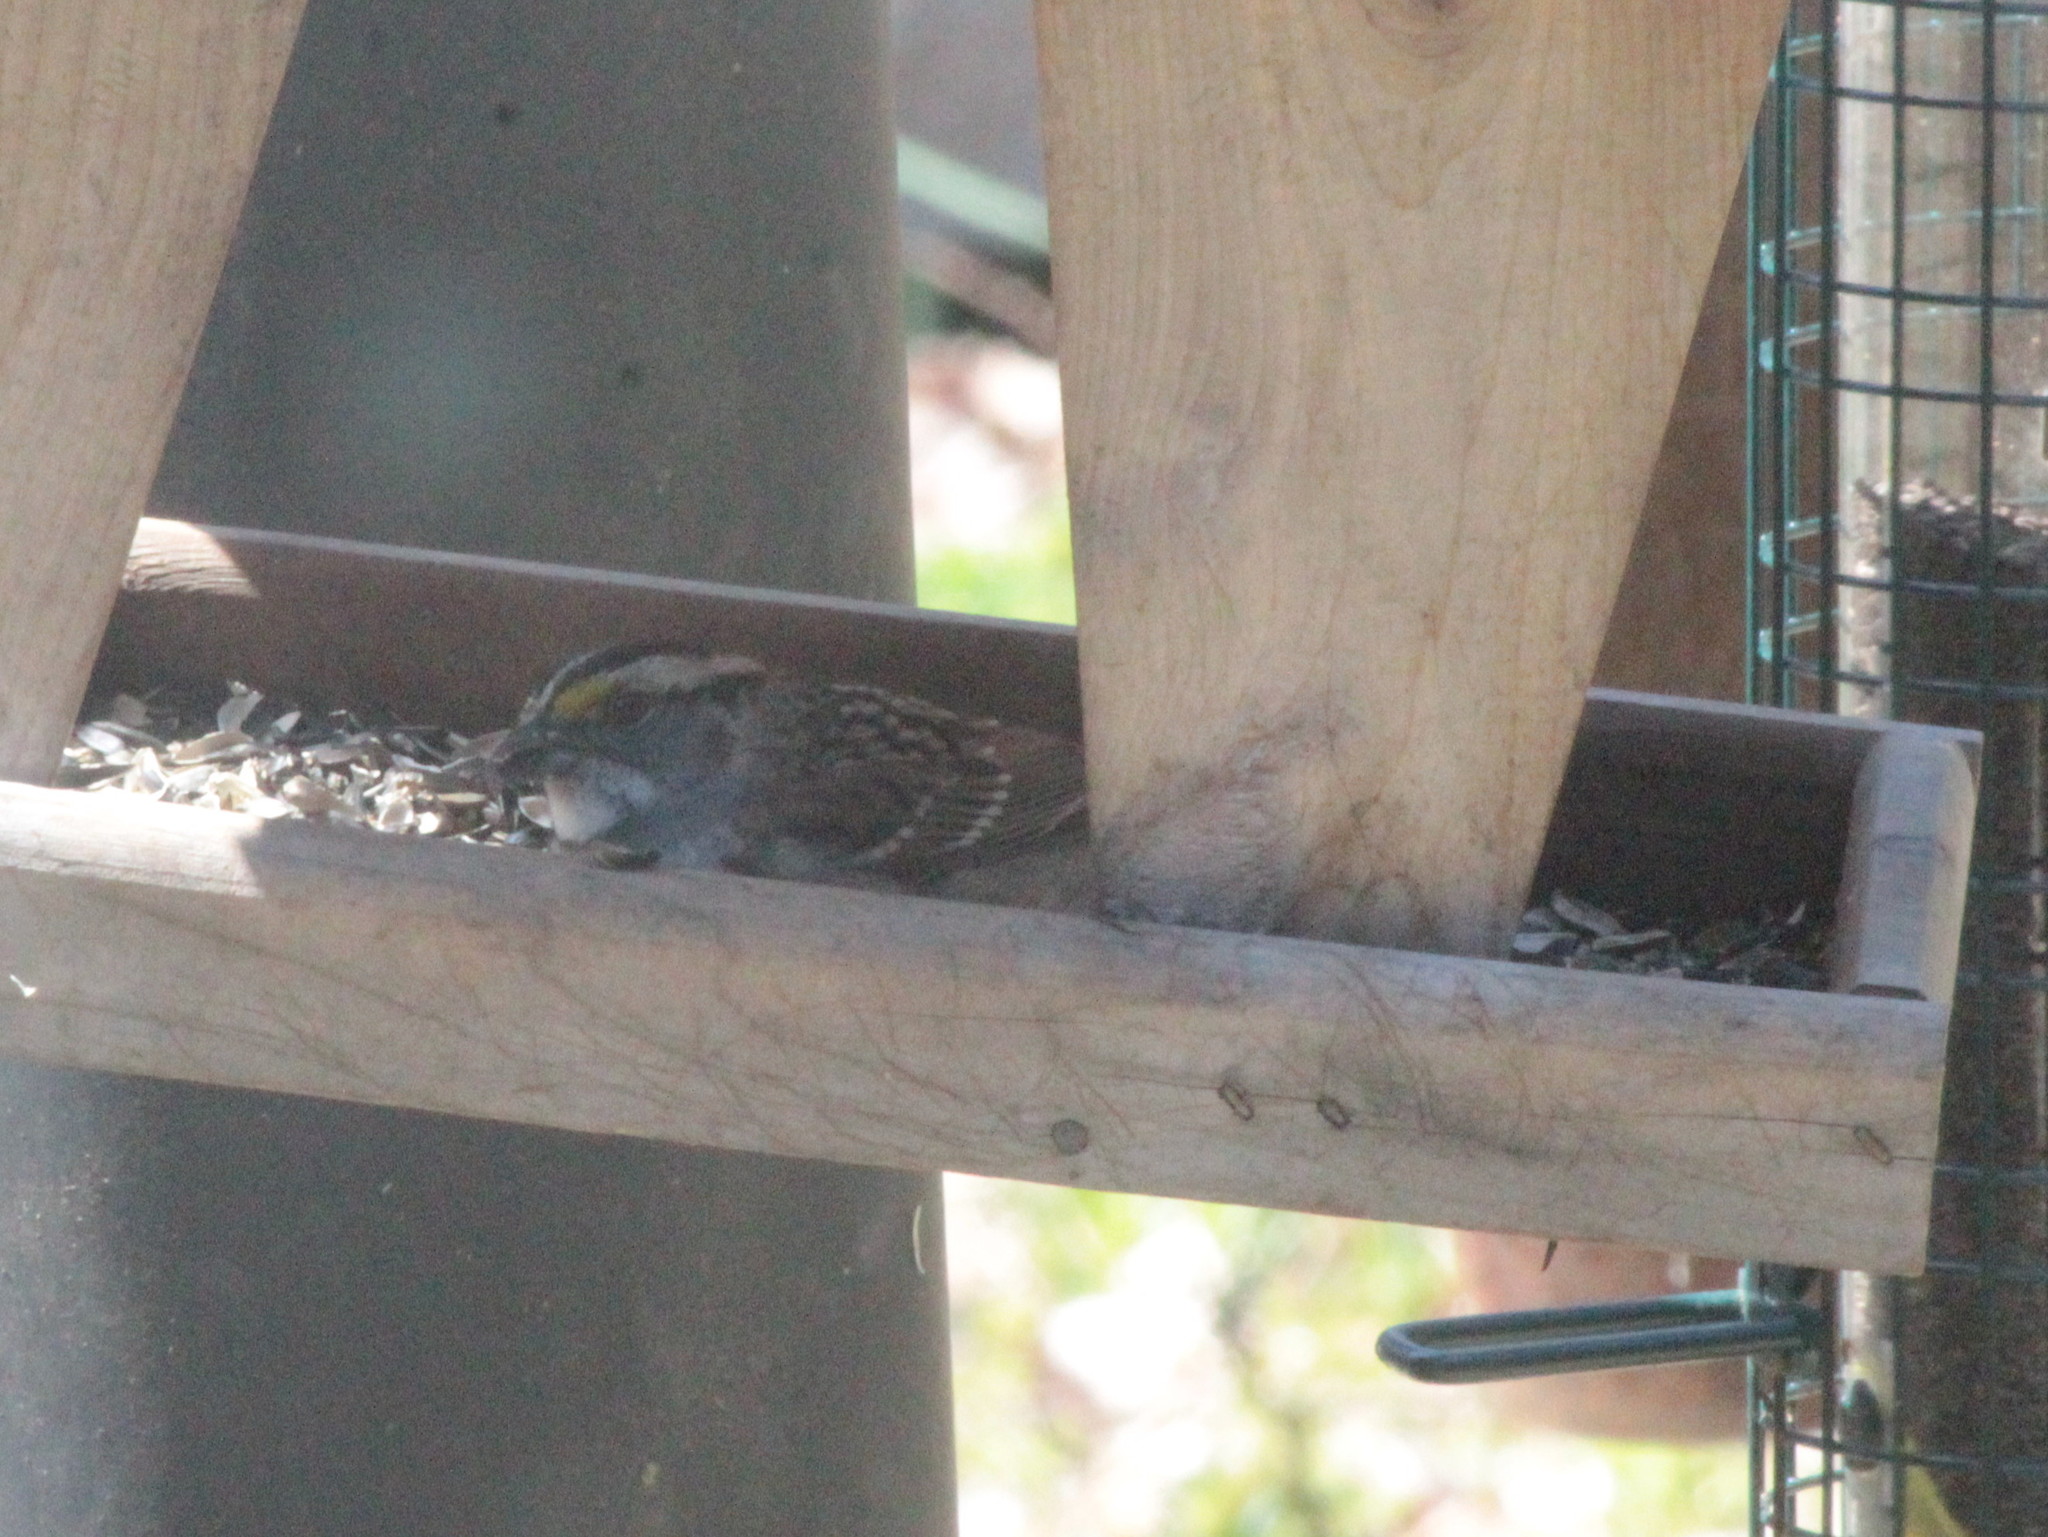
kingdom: Animalia
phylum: Chordata
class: Aves
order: Passeriformes
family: Passerellidae
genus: Zonotrichia
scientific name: Zonotrichia albicollis
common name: White-throated sparrow
